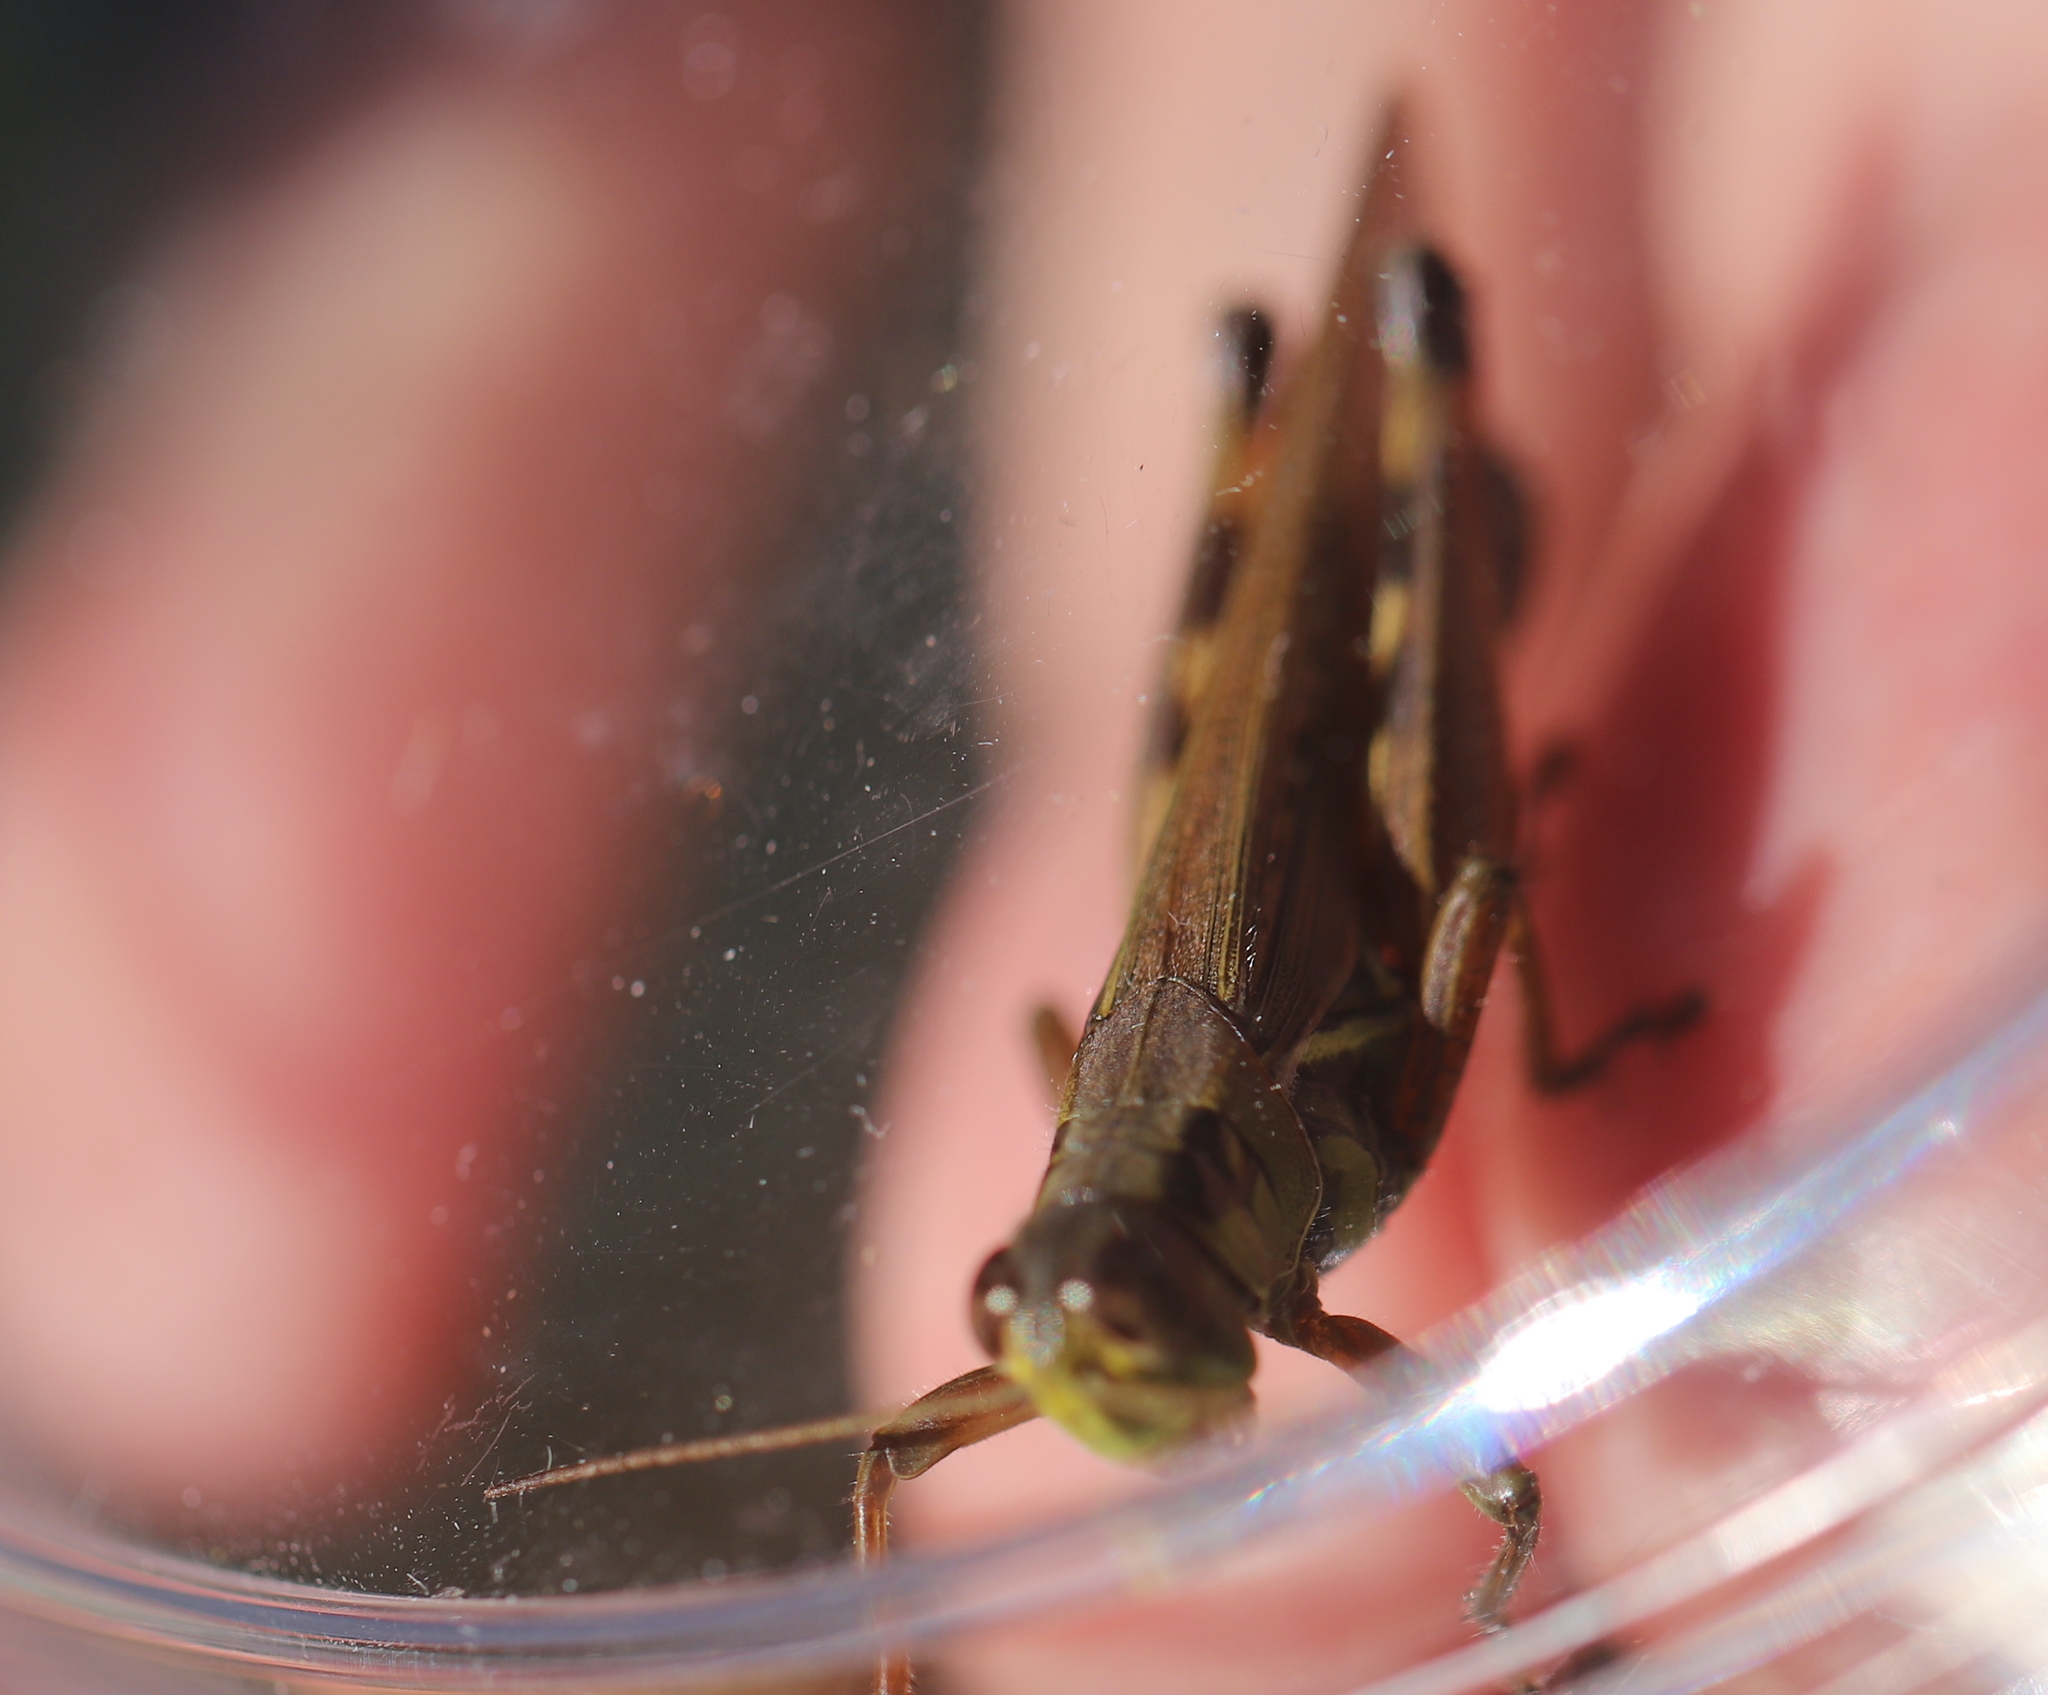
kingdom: Animalia
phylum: Arthropoda
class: Insecta
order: Orthoptera
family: Acrididae
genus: Melanoplus
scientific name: Melanoplus femurrubrum
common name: Red-legged grasshopper
